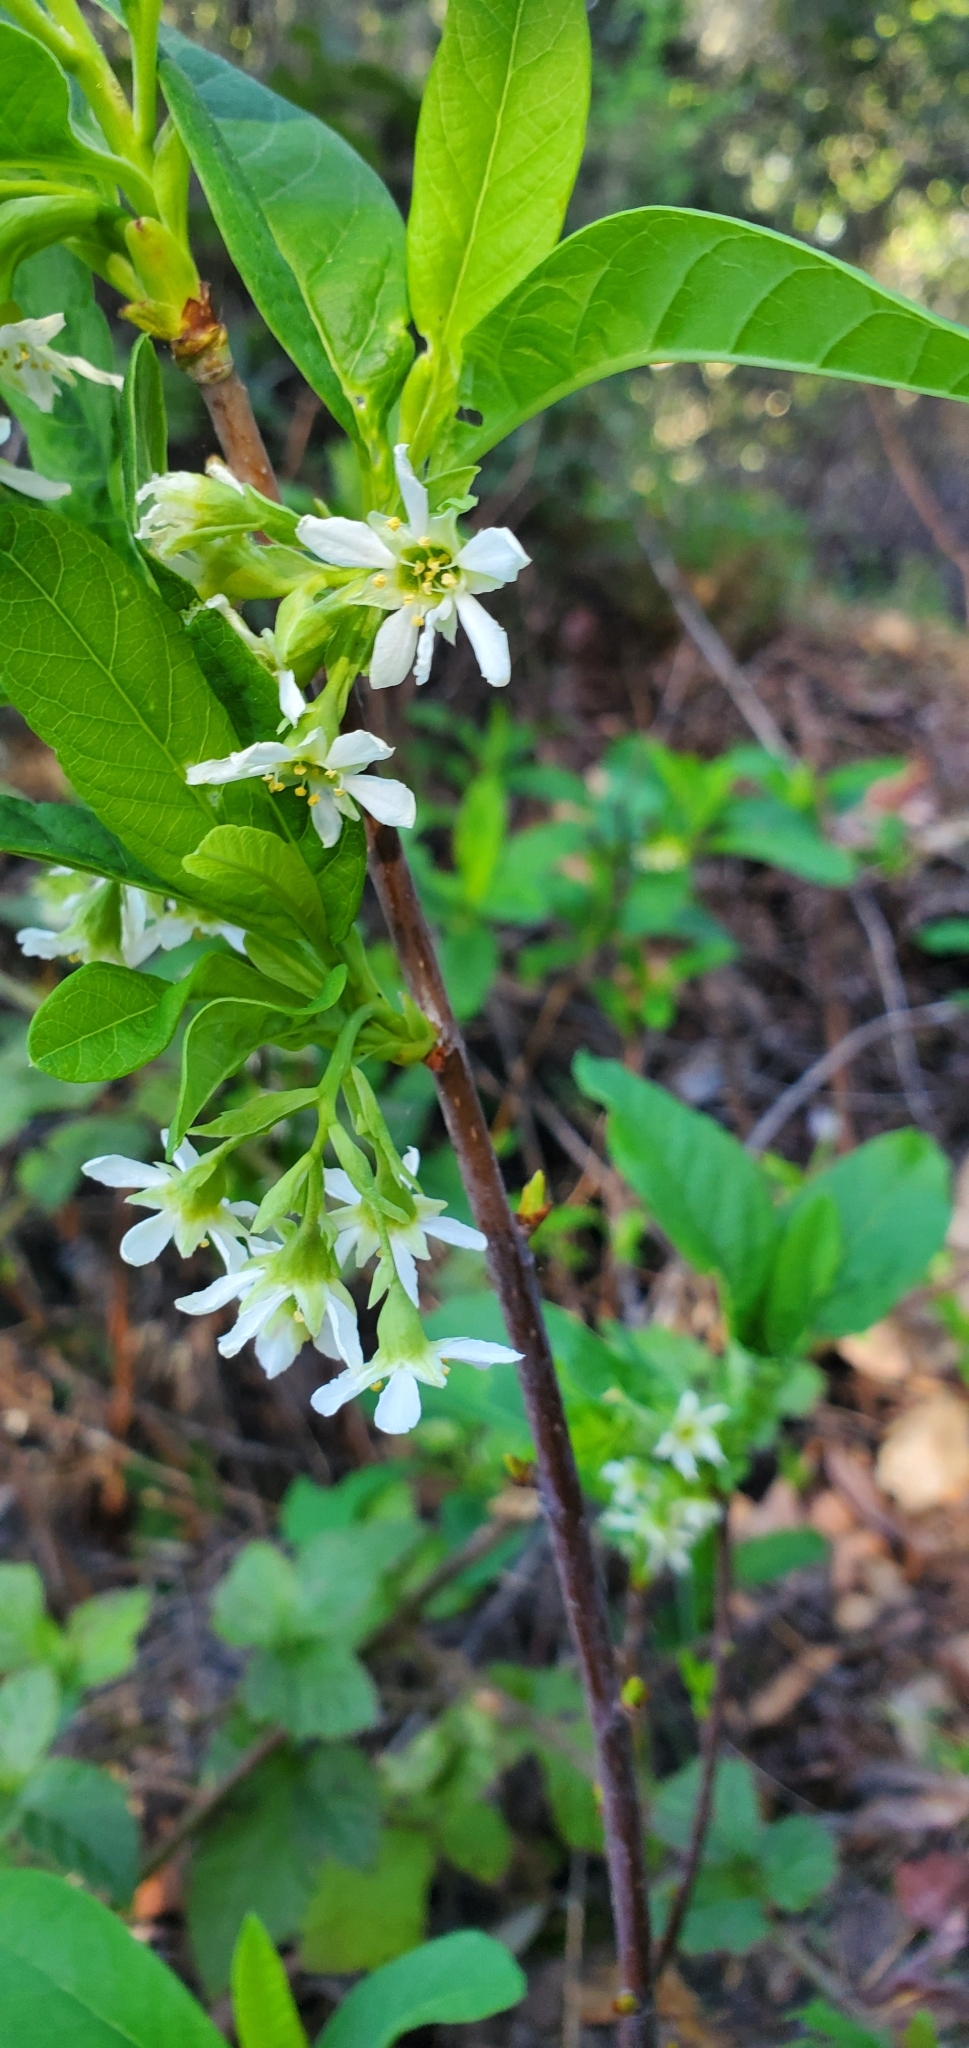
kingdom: Plantae
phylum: Tracheophyta
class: Magnoliopsida
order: Rosales
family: Rosaceae
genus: Oemleria
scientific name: Oemleria cerasiformis
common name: Osoberry
